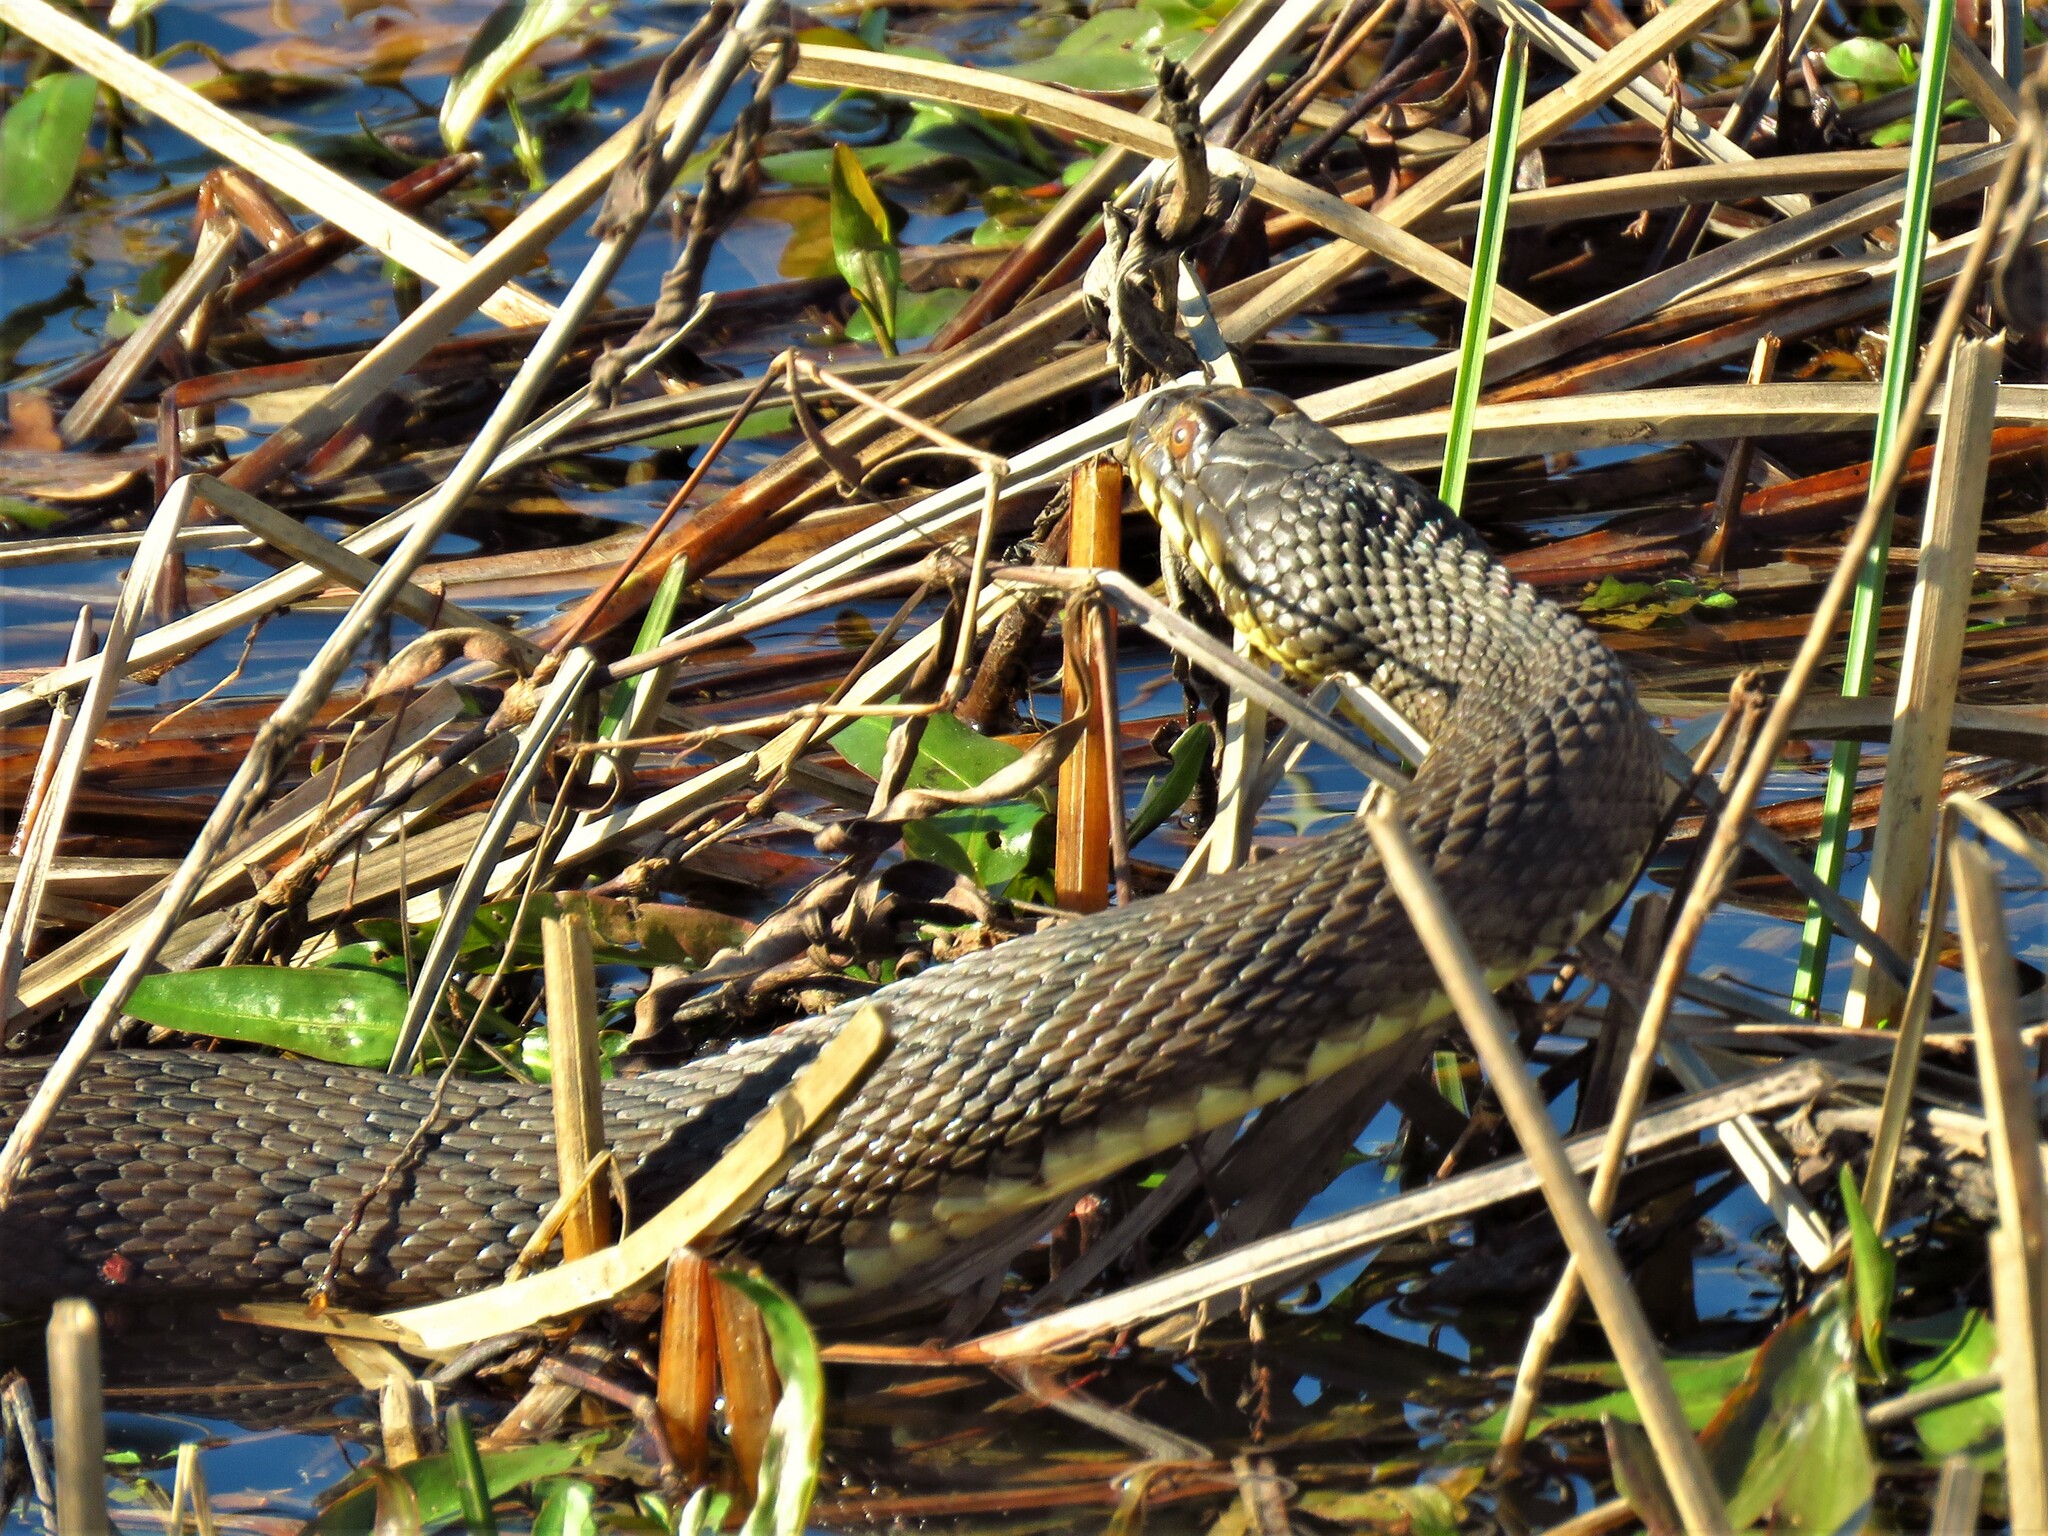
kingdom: Animalia
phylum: Chordata
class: Squamata
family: Colubridae
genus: Nerodia
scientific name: Nerodia rhombifer
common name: Diamondback water snake
